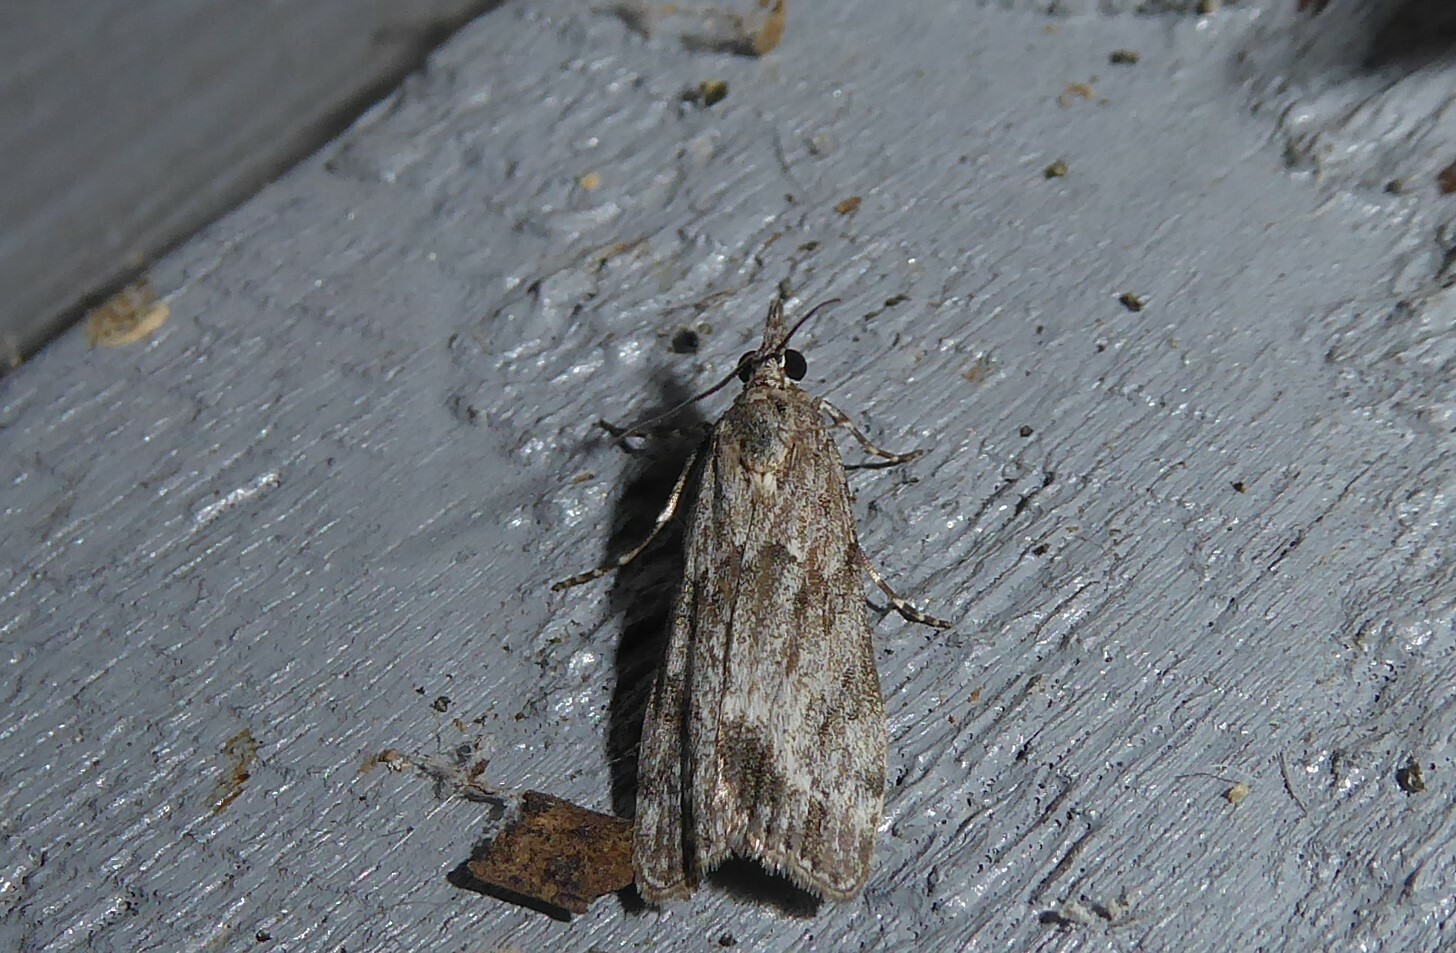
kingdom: Animalia
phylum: Arthropoda
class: Insecta
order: Lepidoptera
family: Crambidae
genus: Eudonia
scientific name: Eudonia rakaiensis
